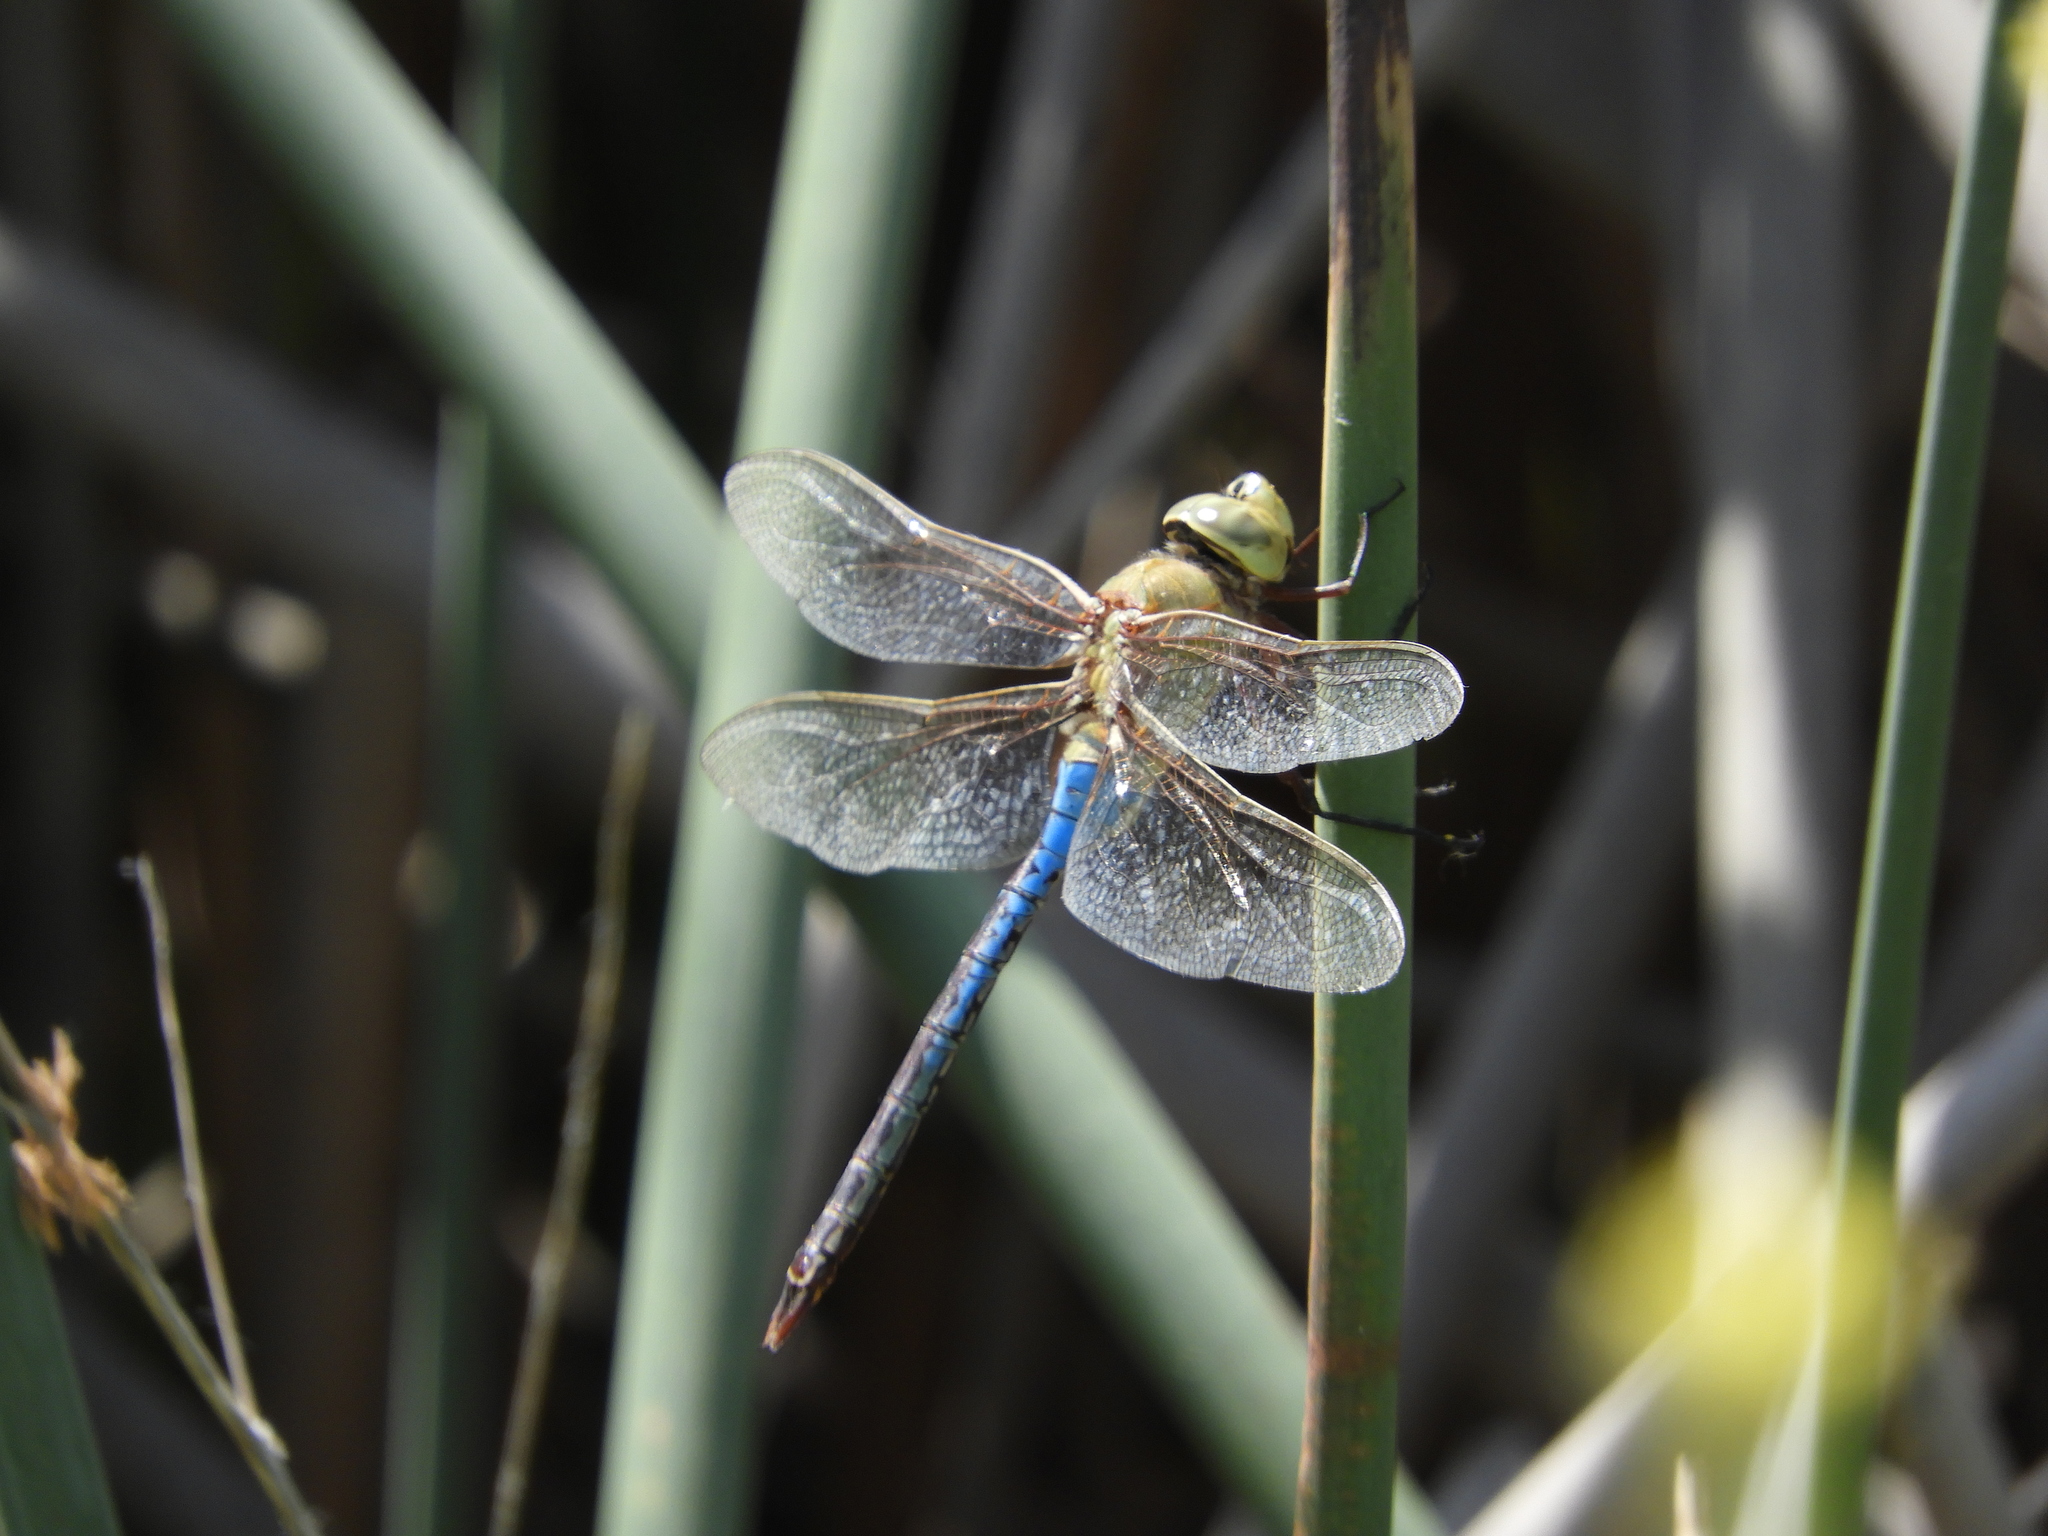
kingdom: Animalia
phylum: Arthropoda
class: Insecta
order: Odonata
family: Aeshnidae
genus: Anax
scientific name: Anax junius
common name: Common green darner
